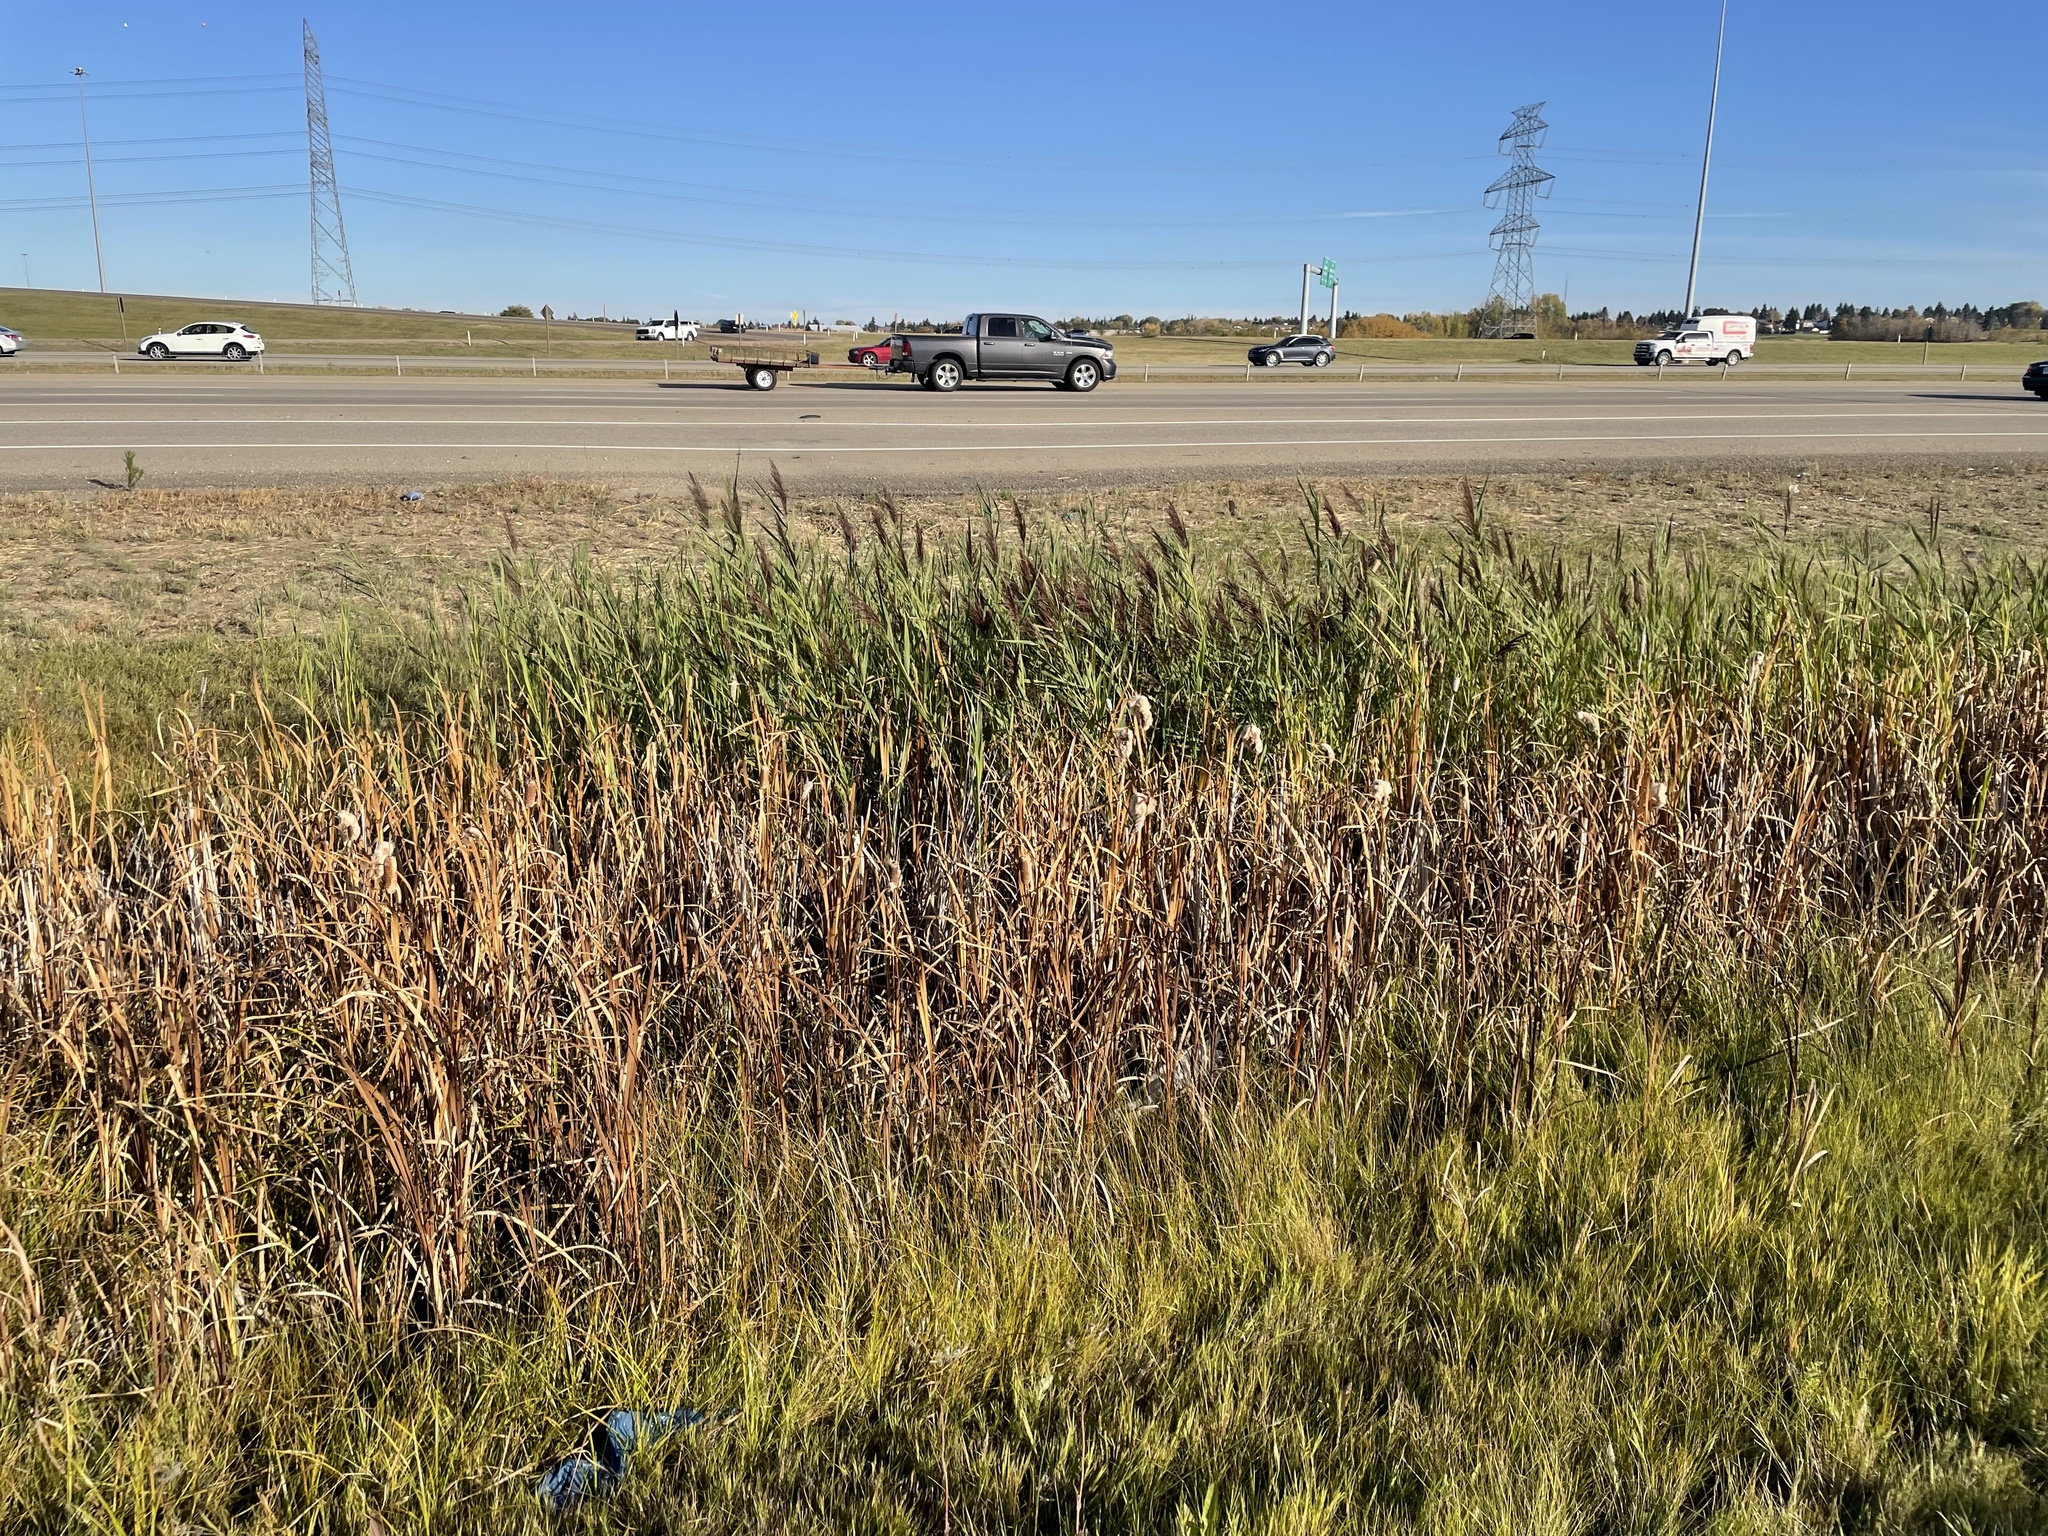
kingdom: Plantae
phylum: Tracheophyta
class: Liliopsida
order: Poales
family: Poaceae
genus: Phragmites
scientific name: Phragmites australis
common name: Common reed
